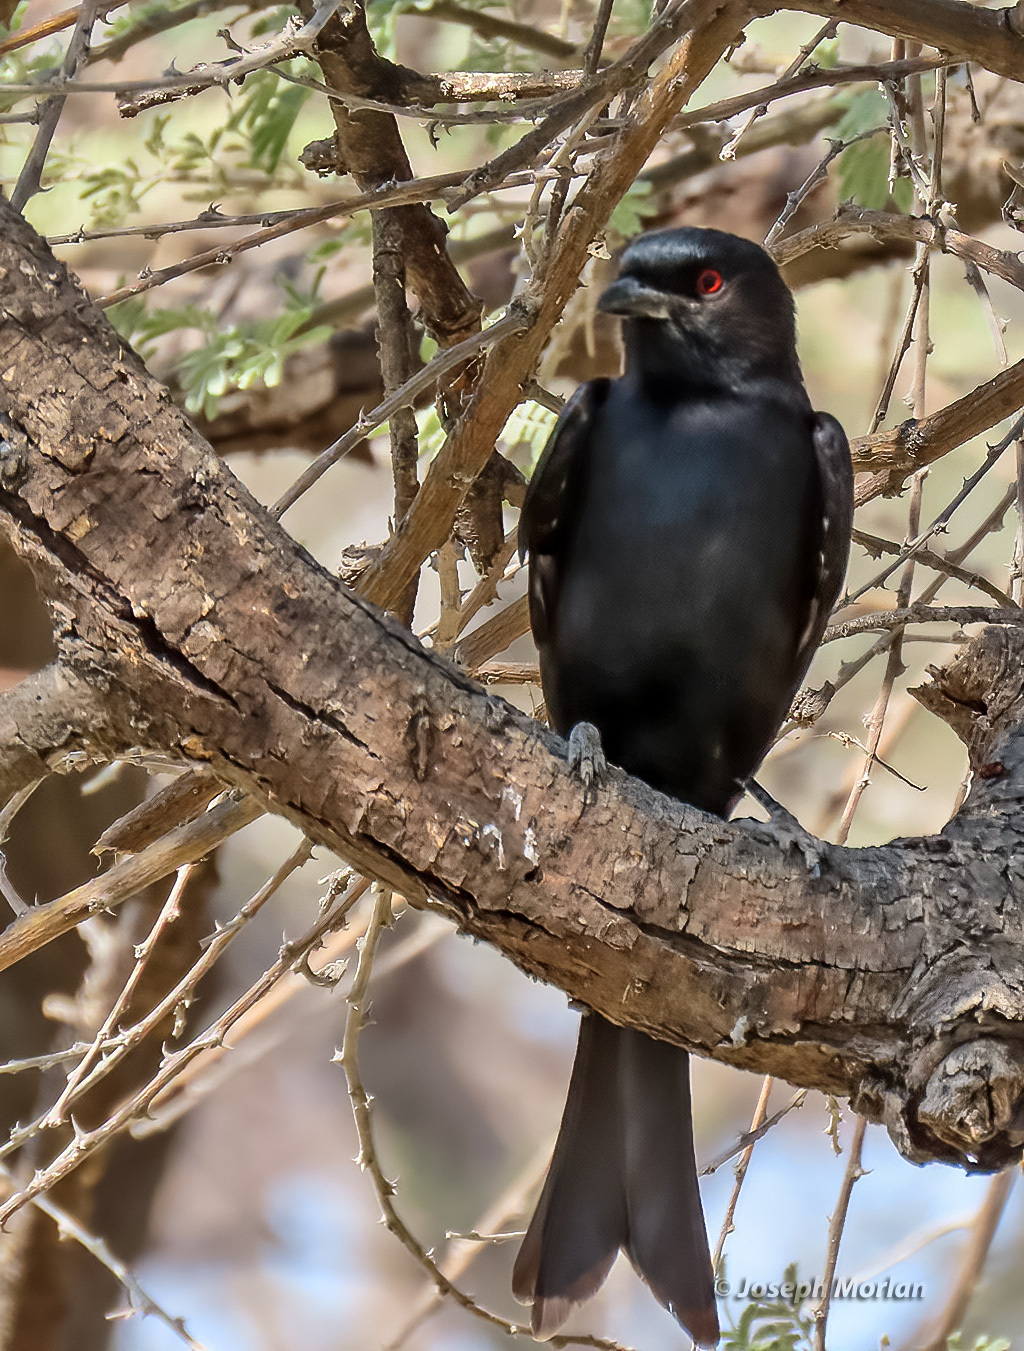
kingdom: Animalia
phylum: Chordata
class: Aves
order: Passeriformes
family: Dicruridae
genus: Dicrurus
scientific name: Dicrurus adsimilis
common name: Fork-tailed drongo
